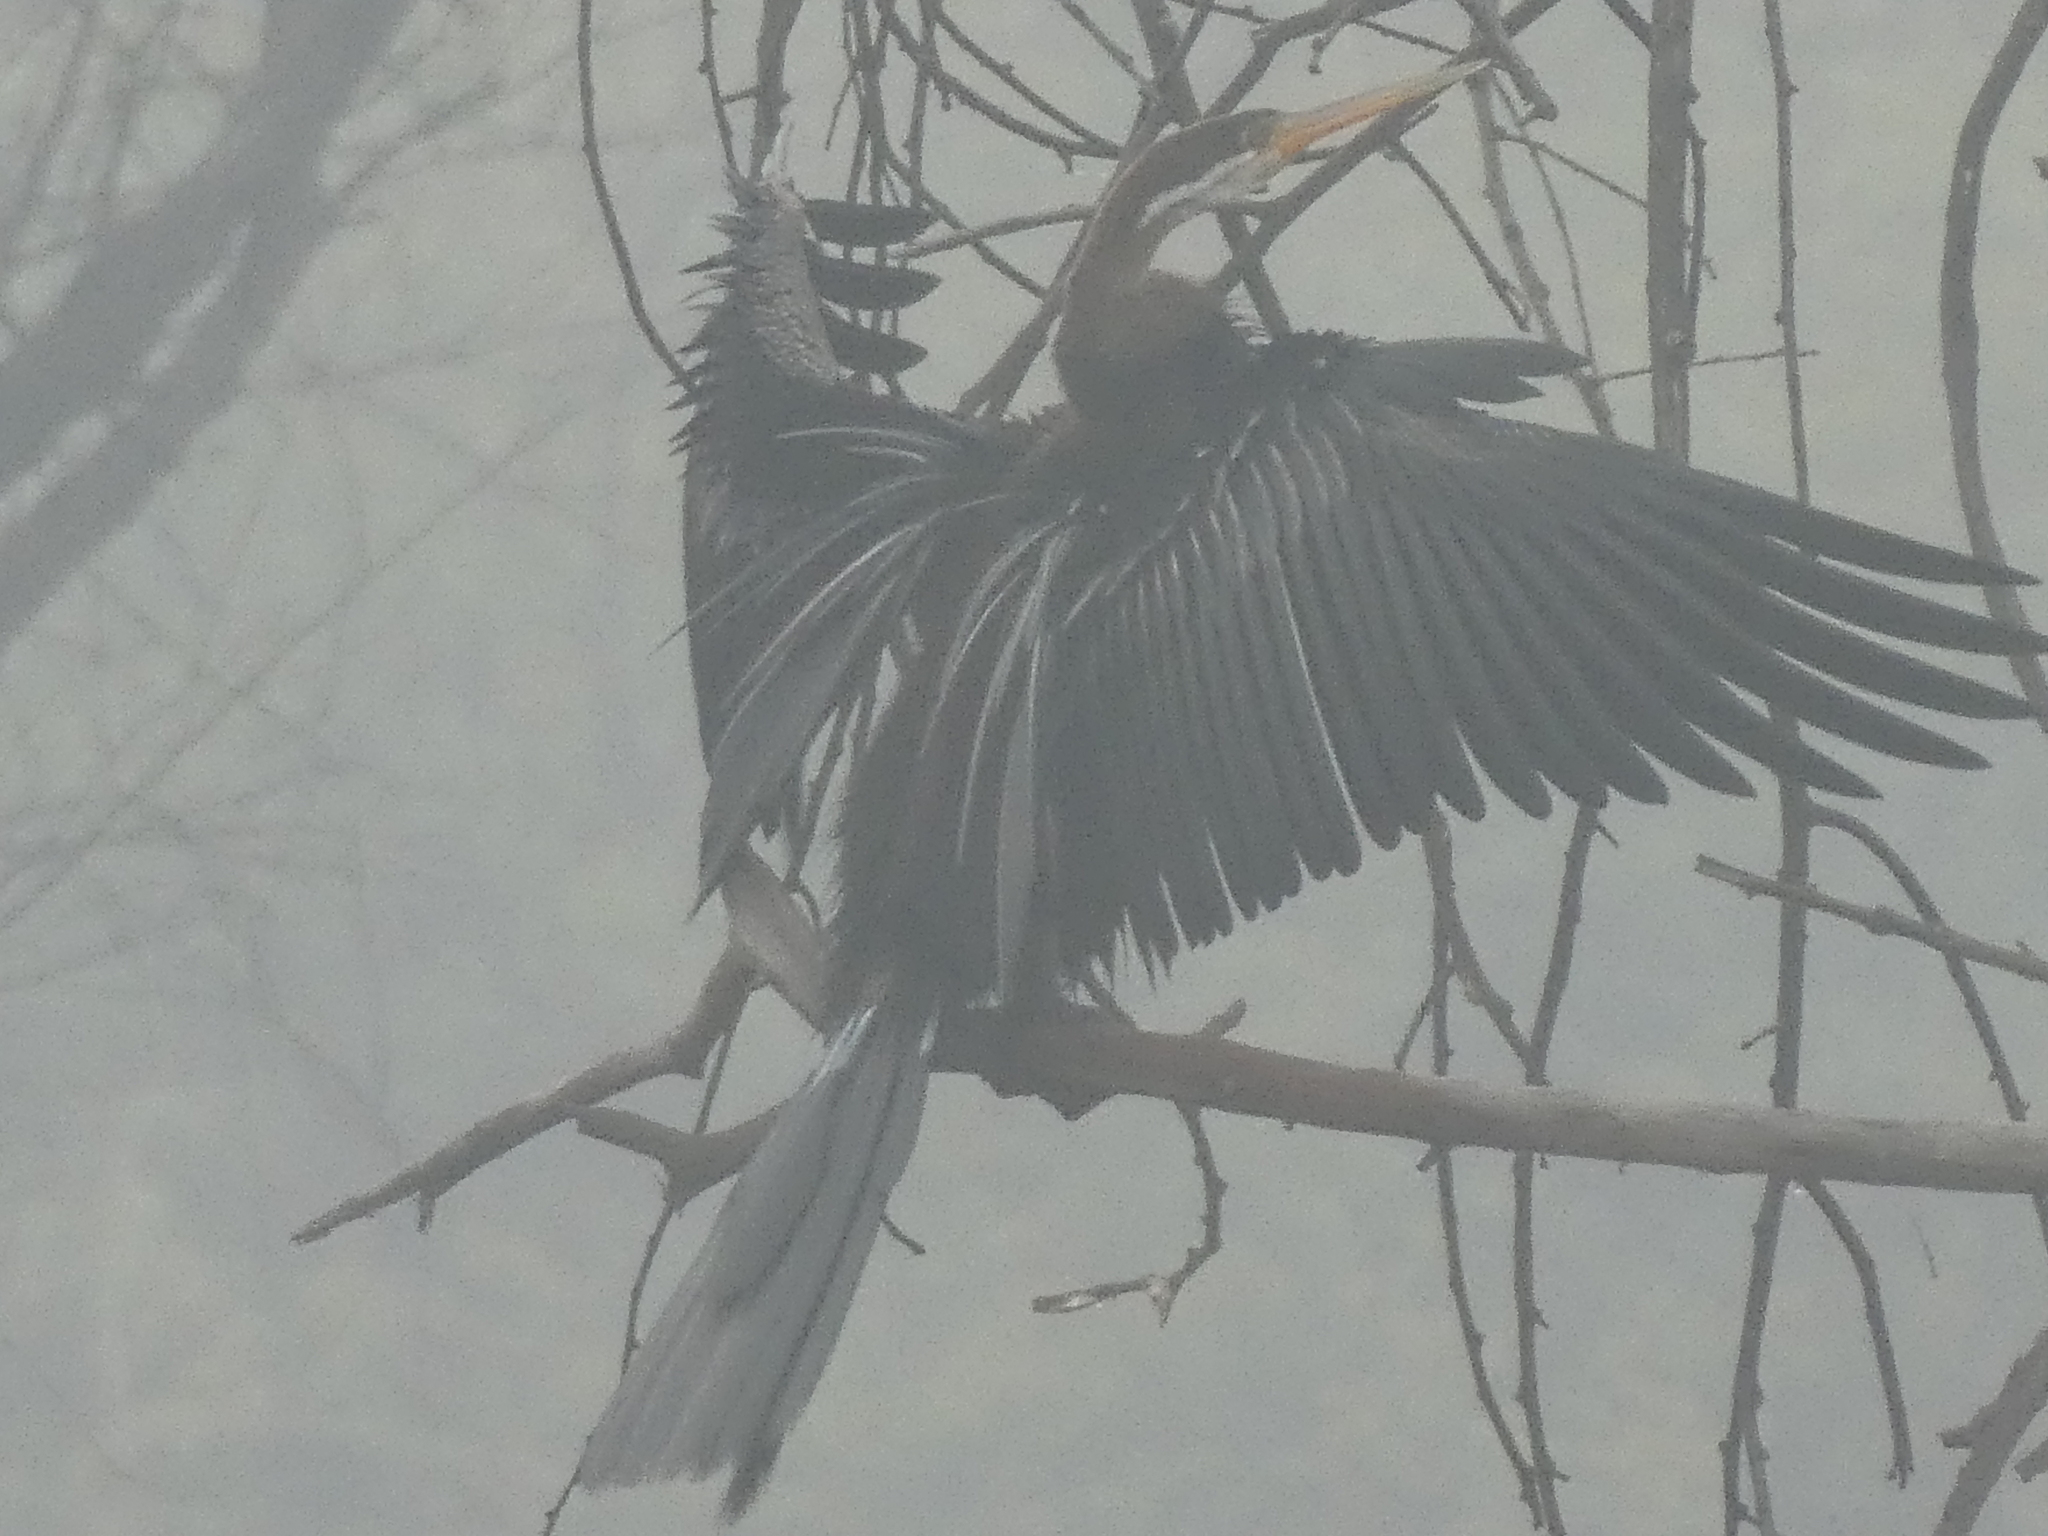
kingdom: Animalia
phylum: Chordata
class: Aves
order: Suliformes
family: Anhingidae
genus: Anhinga
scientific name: Anhinga melanogaster
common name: Oriental darter
